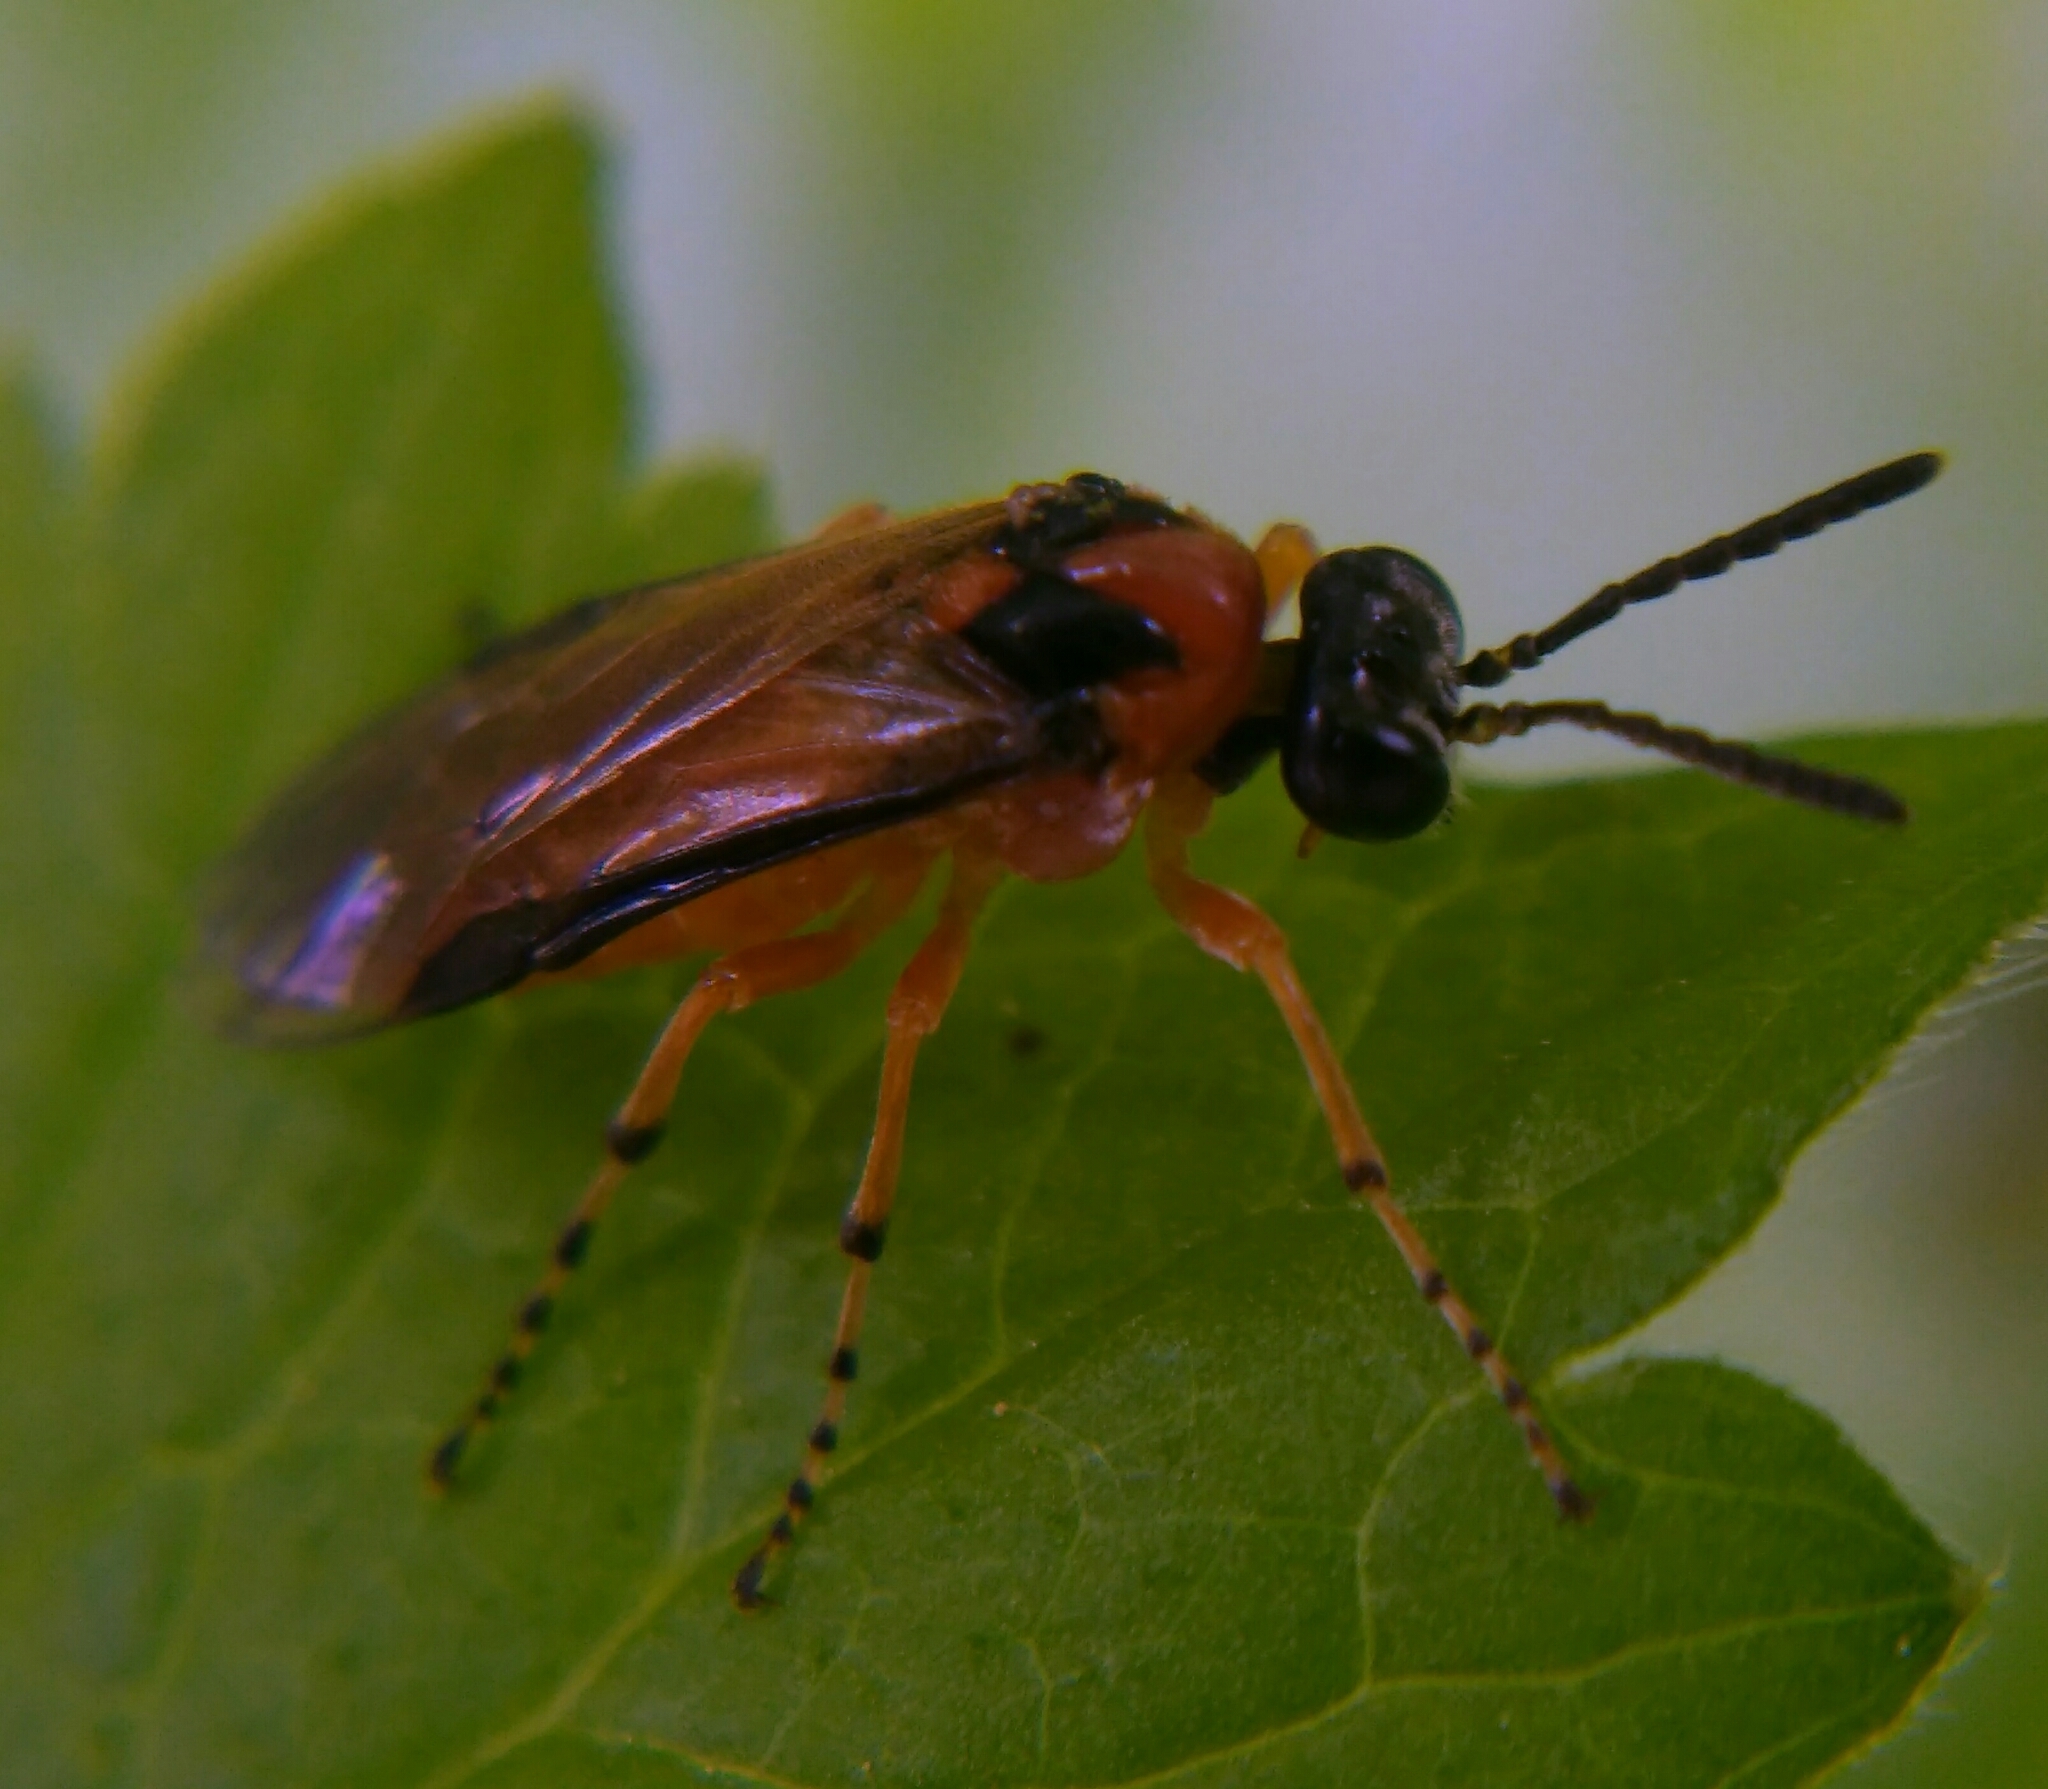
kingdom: Animalia
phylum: Arthropoda
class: Insecta
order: Hymenoptera
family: Tenthredinidae
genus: Athalia
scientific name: Athalia rosae
